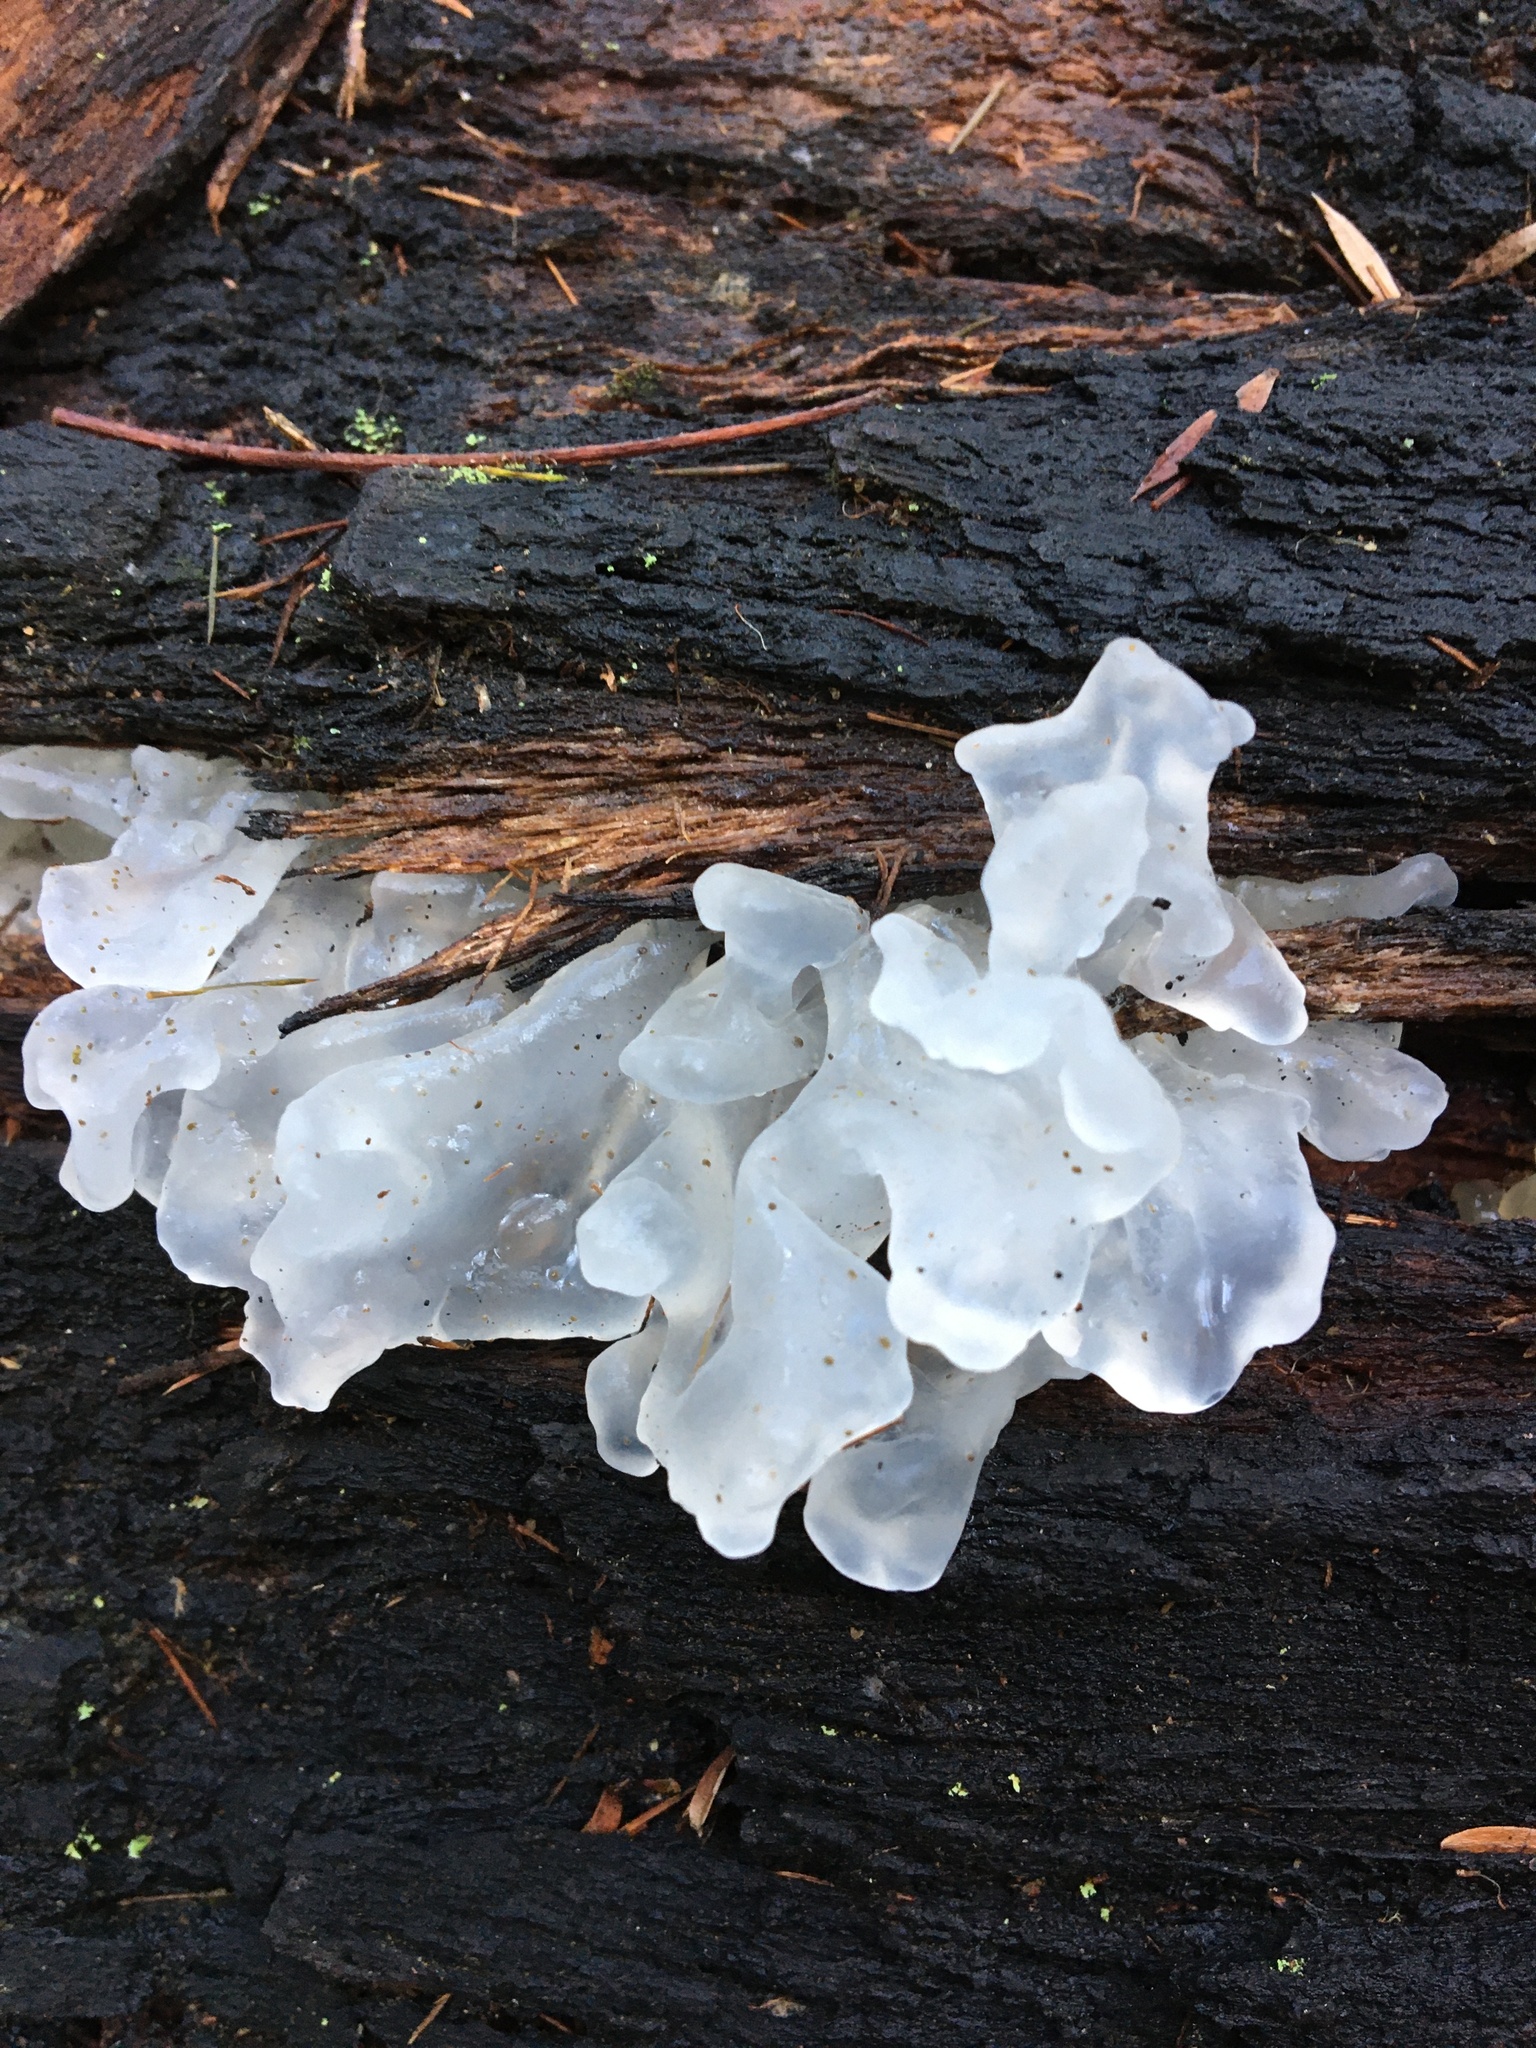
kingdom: Fungi
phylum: Basidiomycota
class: Tremellomycetes
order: Tremellales
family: Tremellaceae
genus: Tremella
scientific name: Tremella fuciformis
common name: Snow fungus
